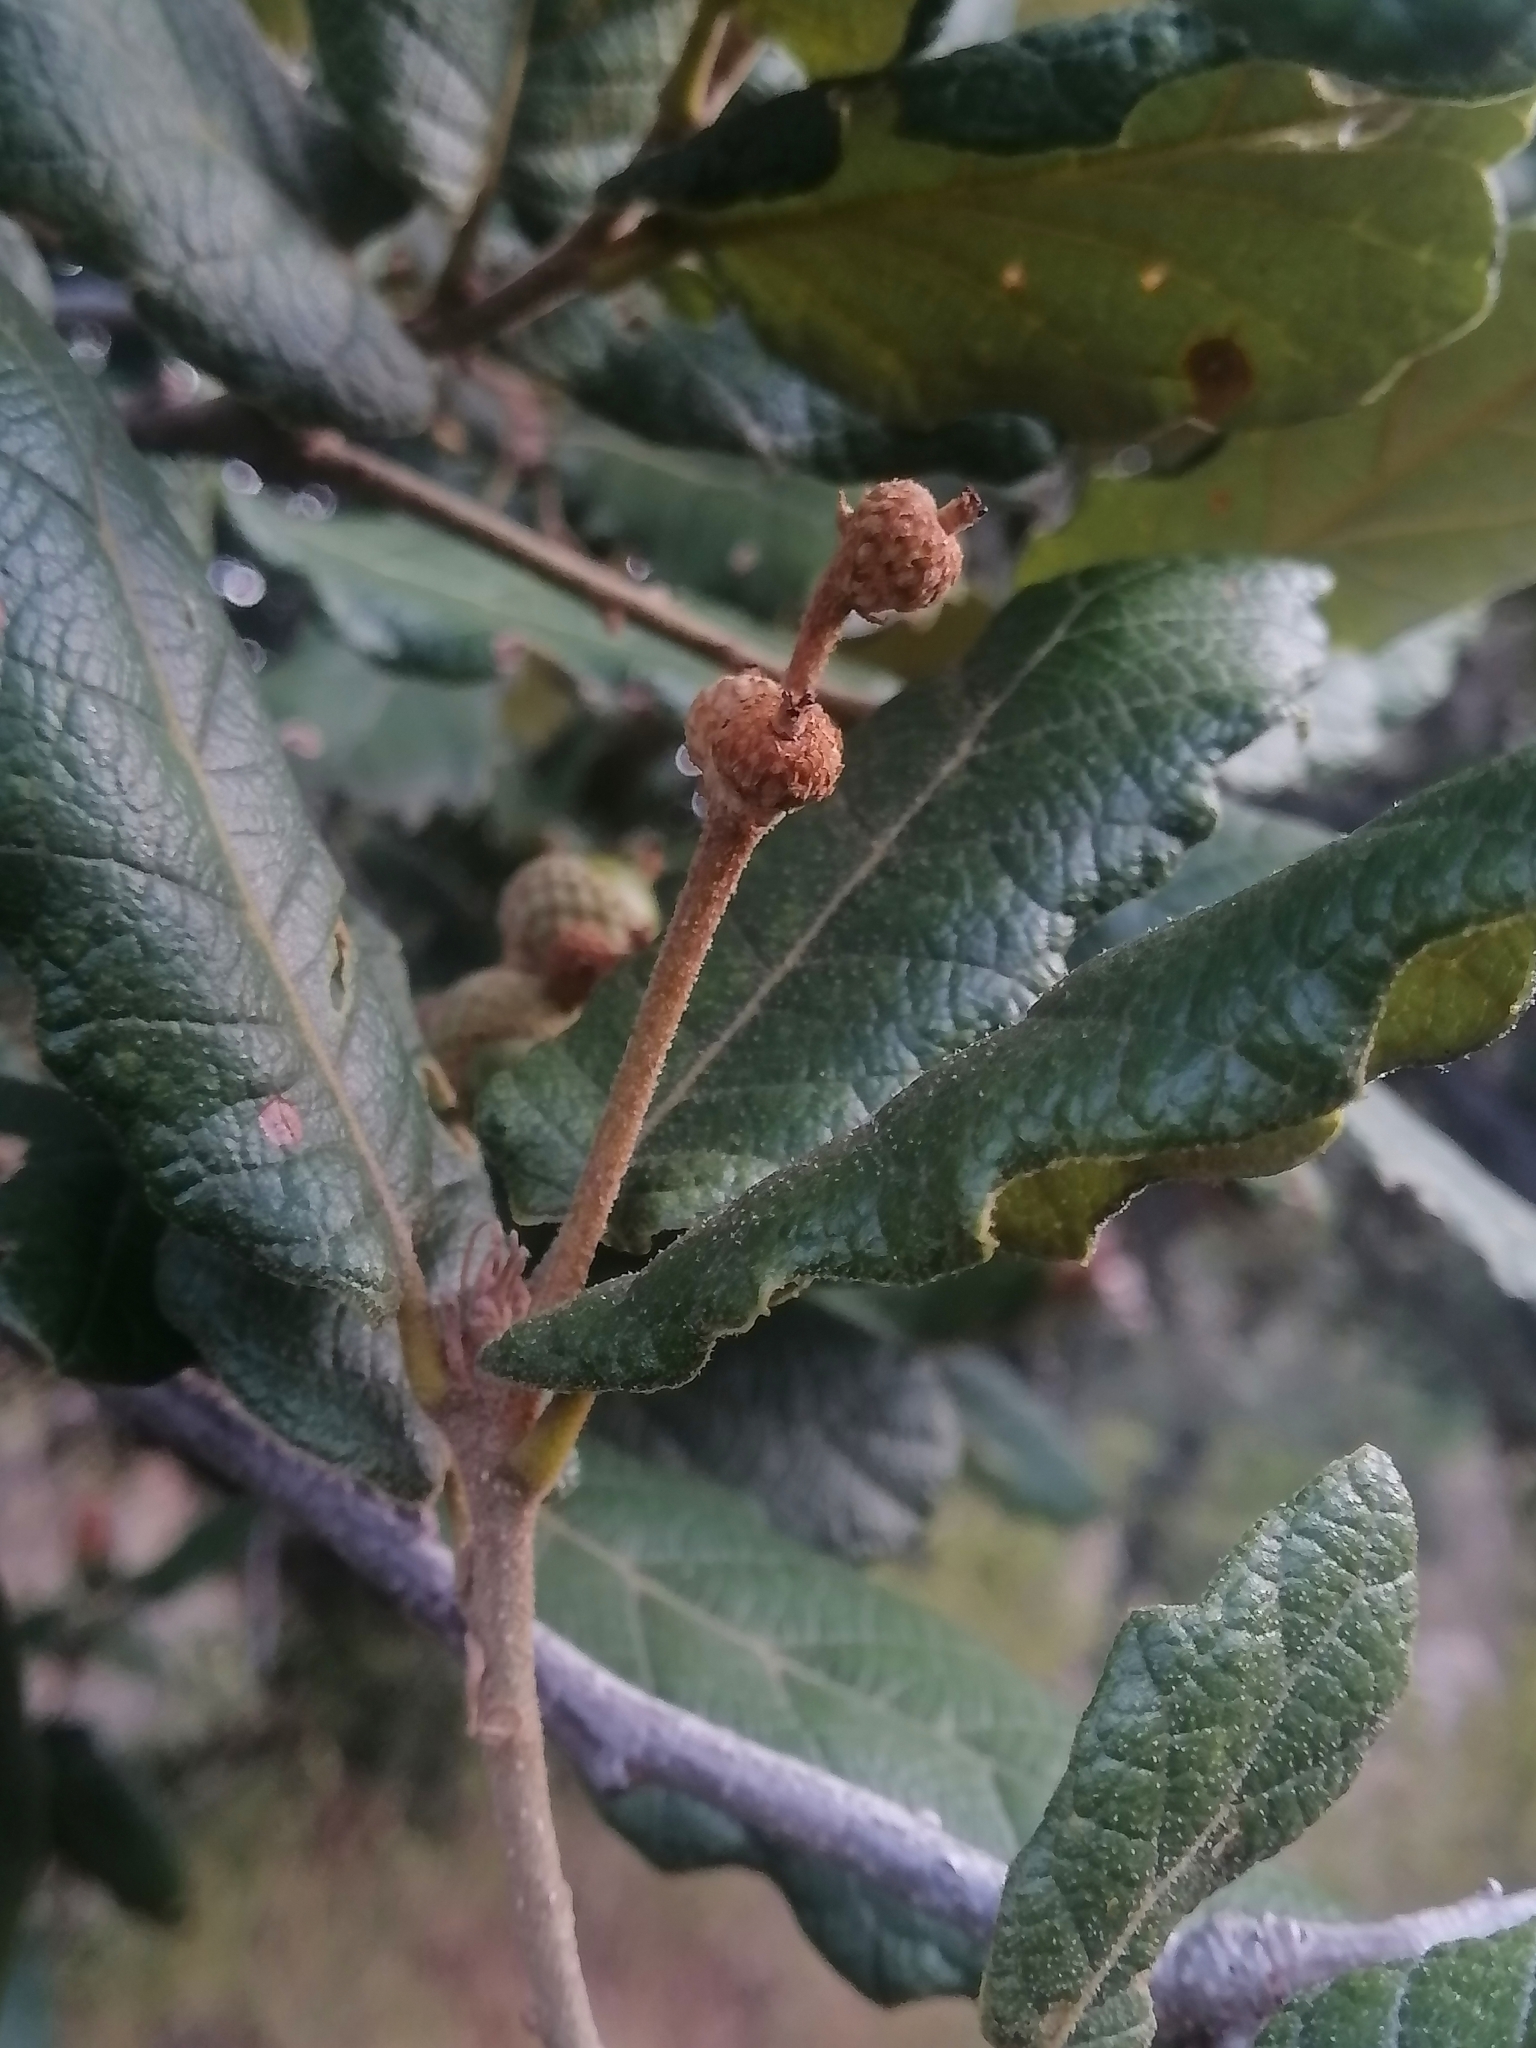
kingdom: Plantae
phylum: Tracheophyta
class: Magnoliopsida
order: Fagales
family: Fagaceae
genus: Quercus
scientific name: Quercus rugosa
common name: Netleaf oak
